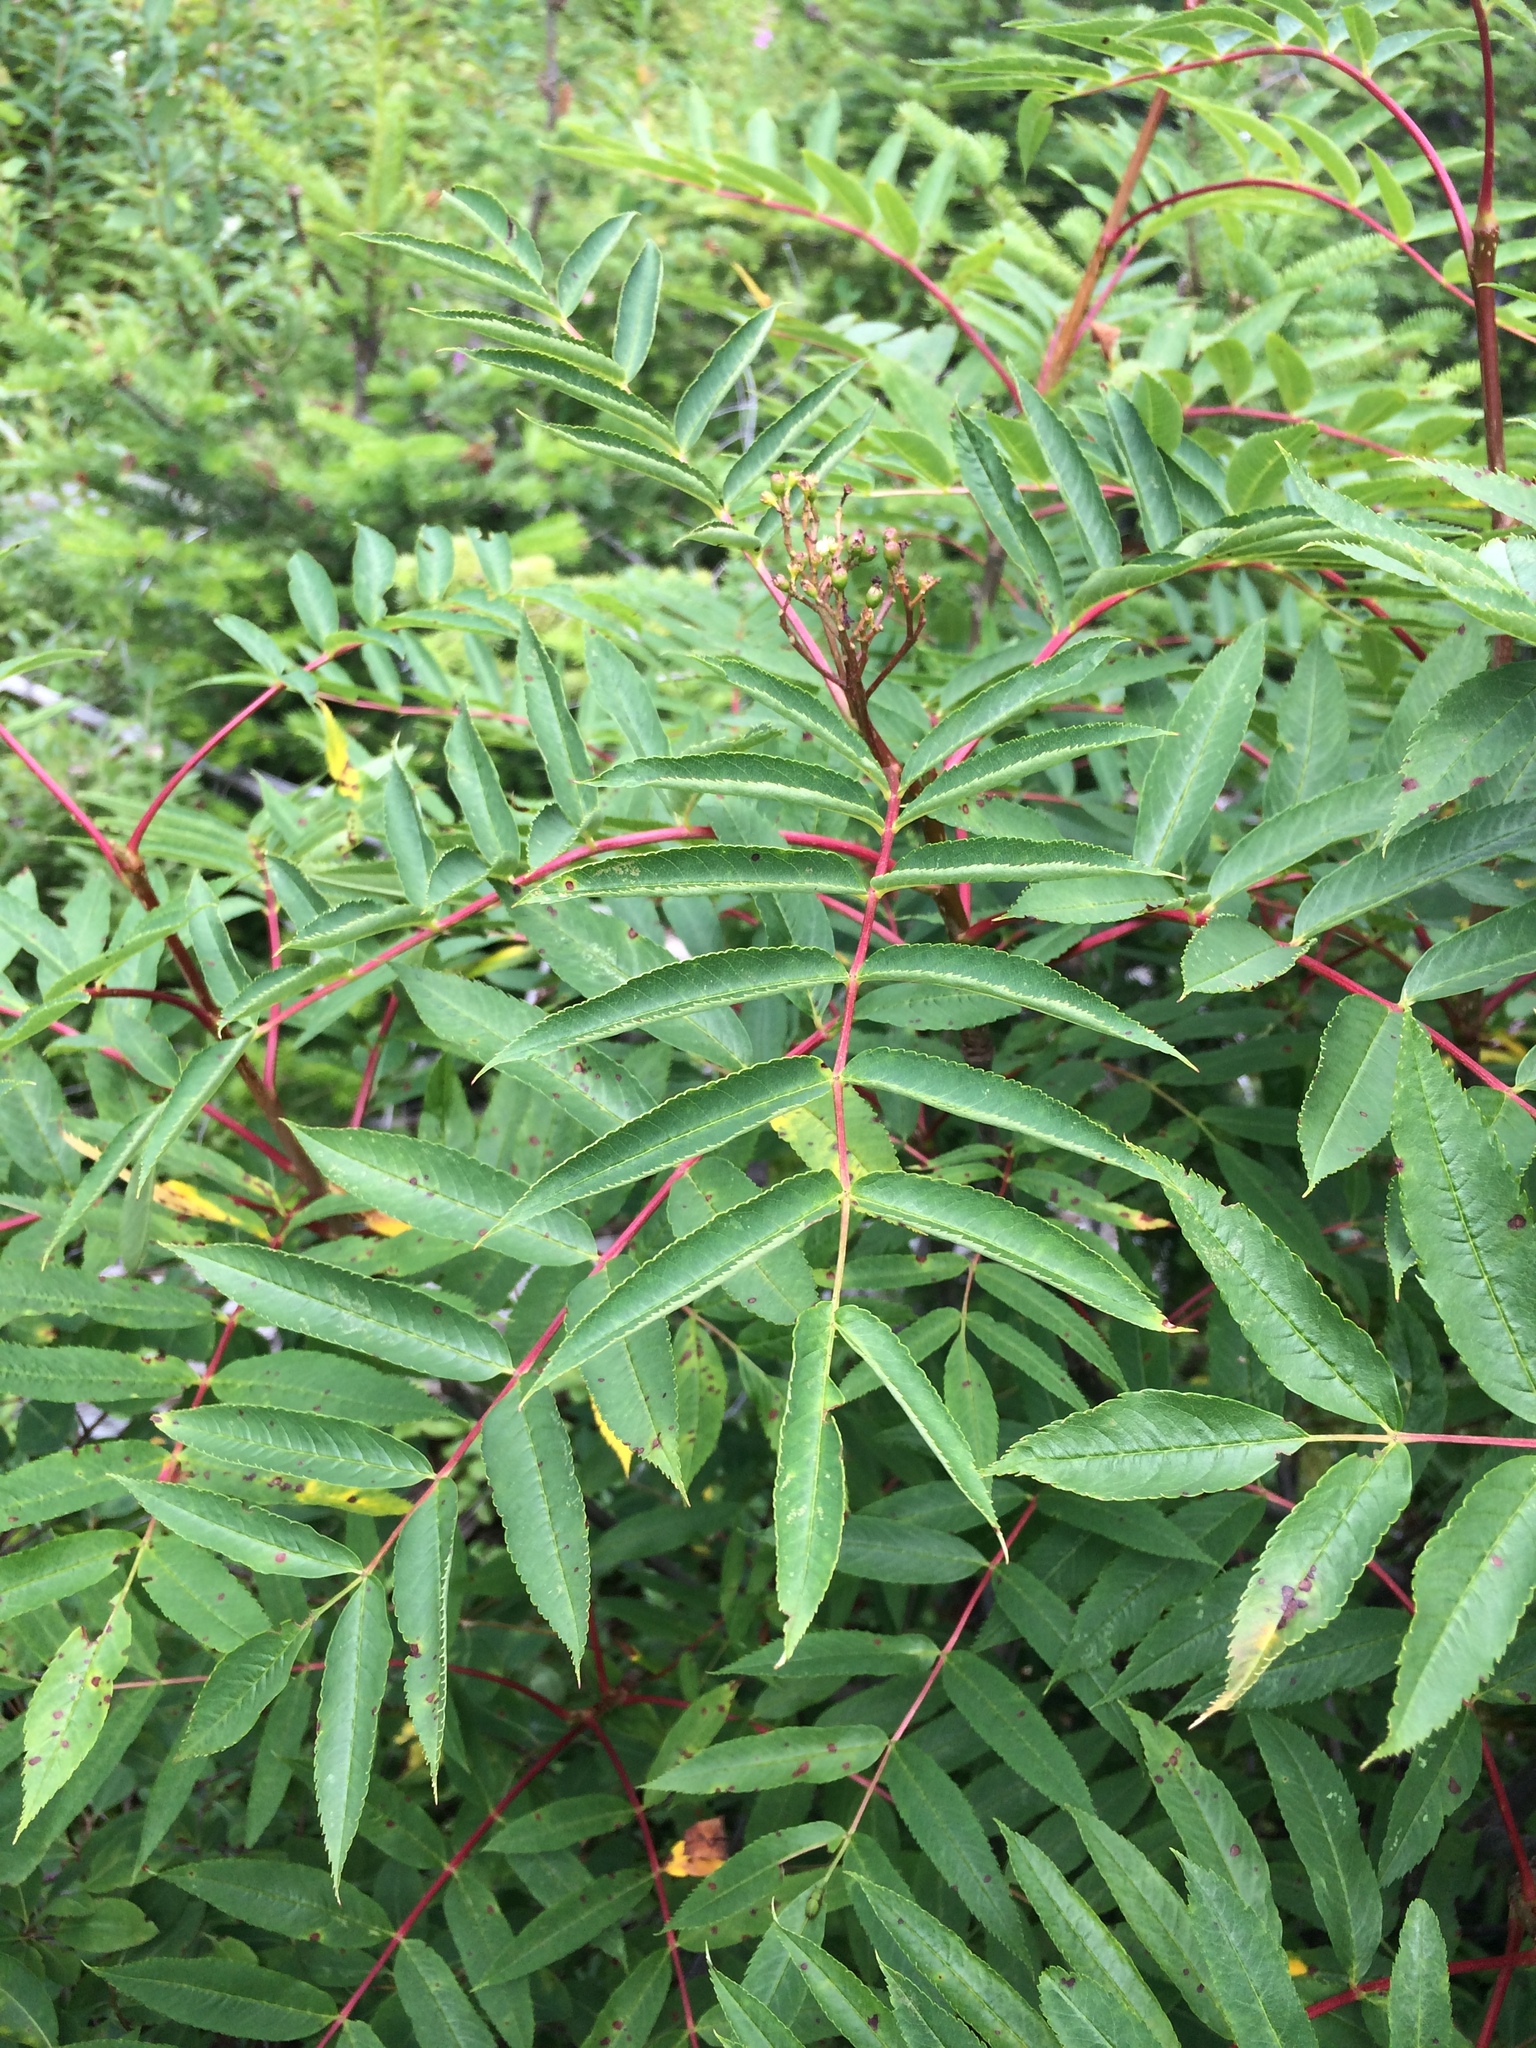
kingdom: Plantae
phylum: Tracheophyta
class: Magnoliopsida
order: Rosales
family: Rosaceae
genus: Sorbus
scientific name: Sorbus americana
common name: American mountain-ash
